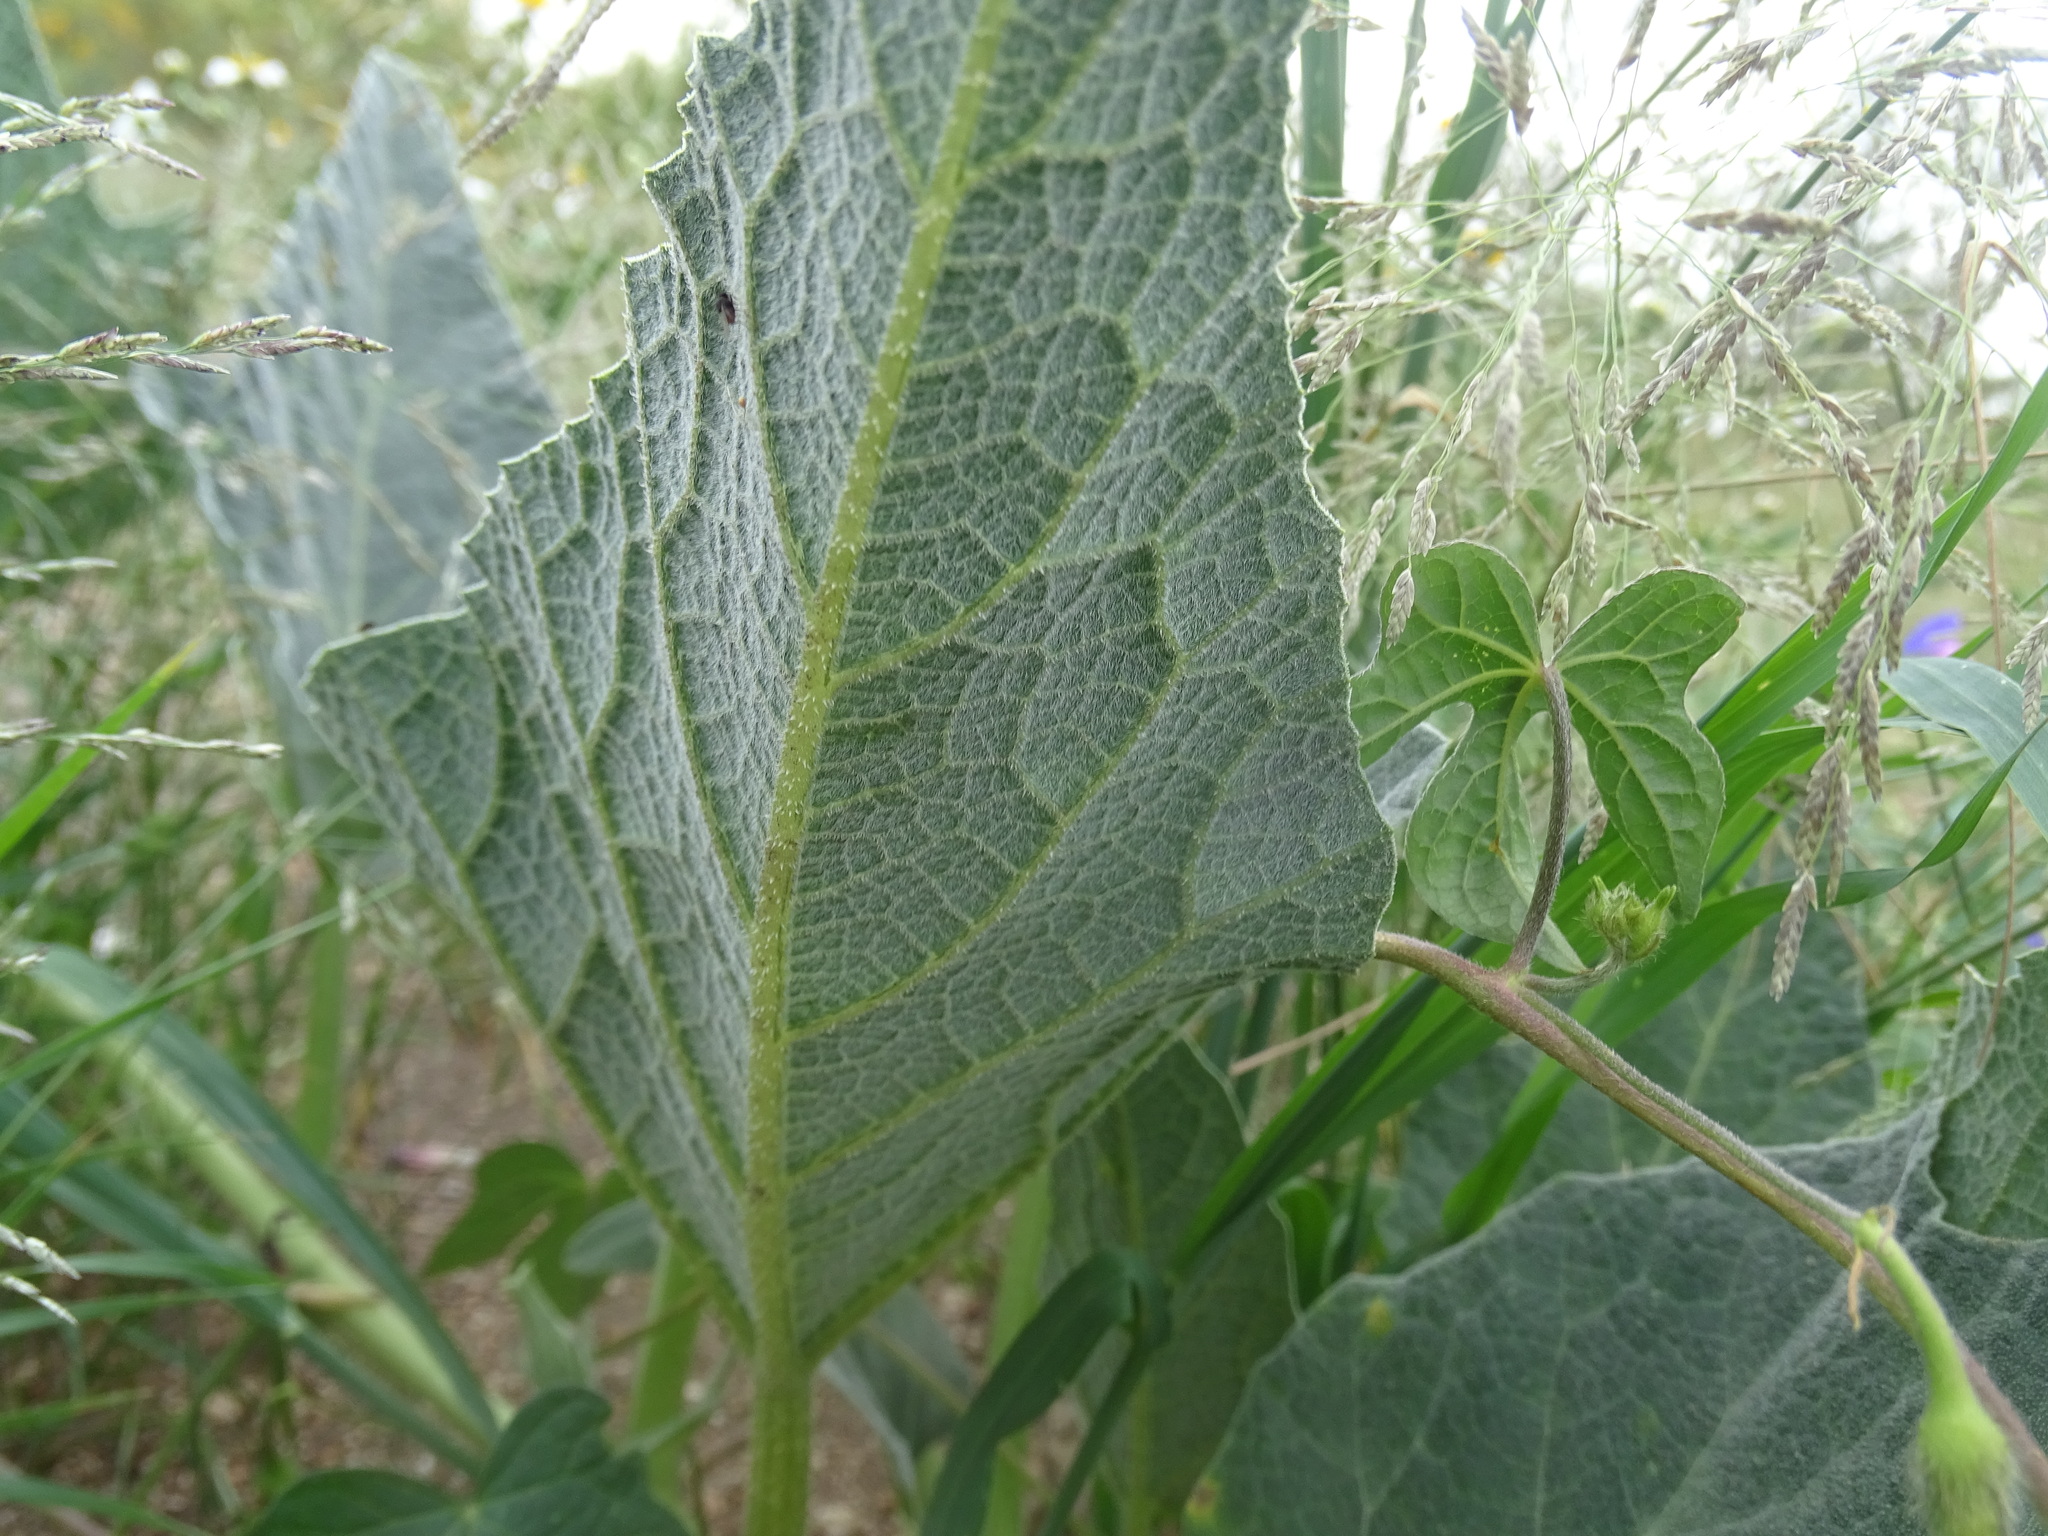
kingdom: Plantae
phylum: Tracheophyta
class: Magnoliopsida
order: Cucurbitales
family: Cucurbitaceae
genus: Cucurbita
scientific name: Cucurbita foetidissima
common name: Buffalo gourd
